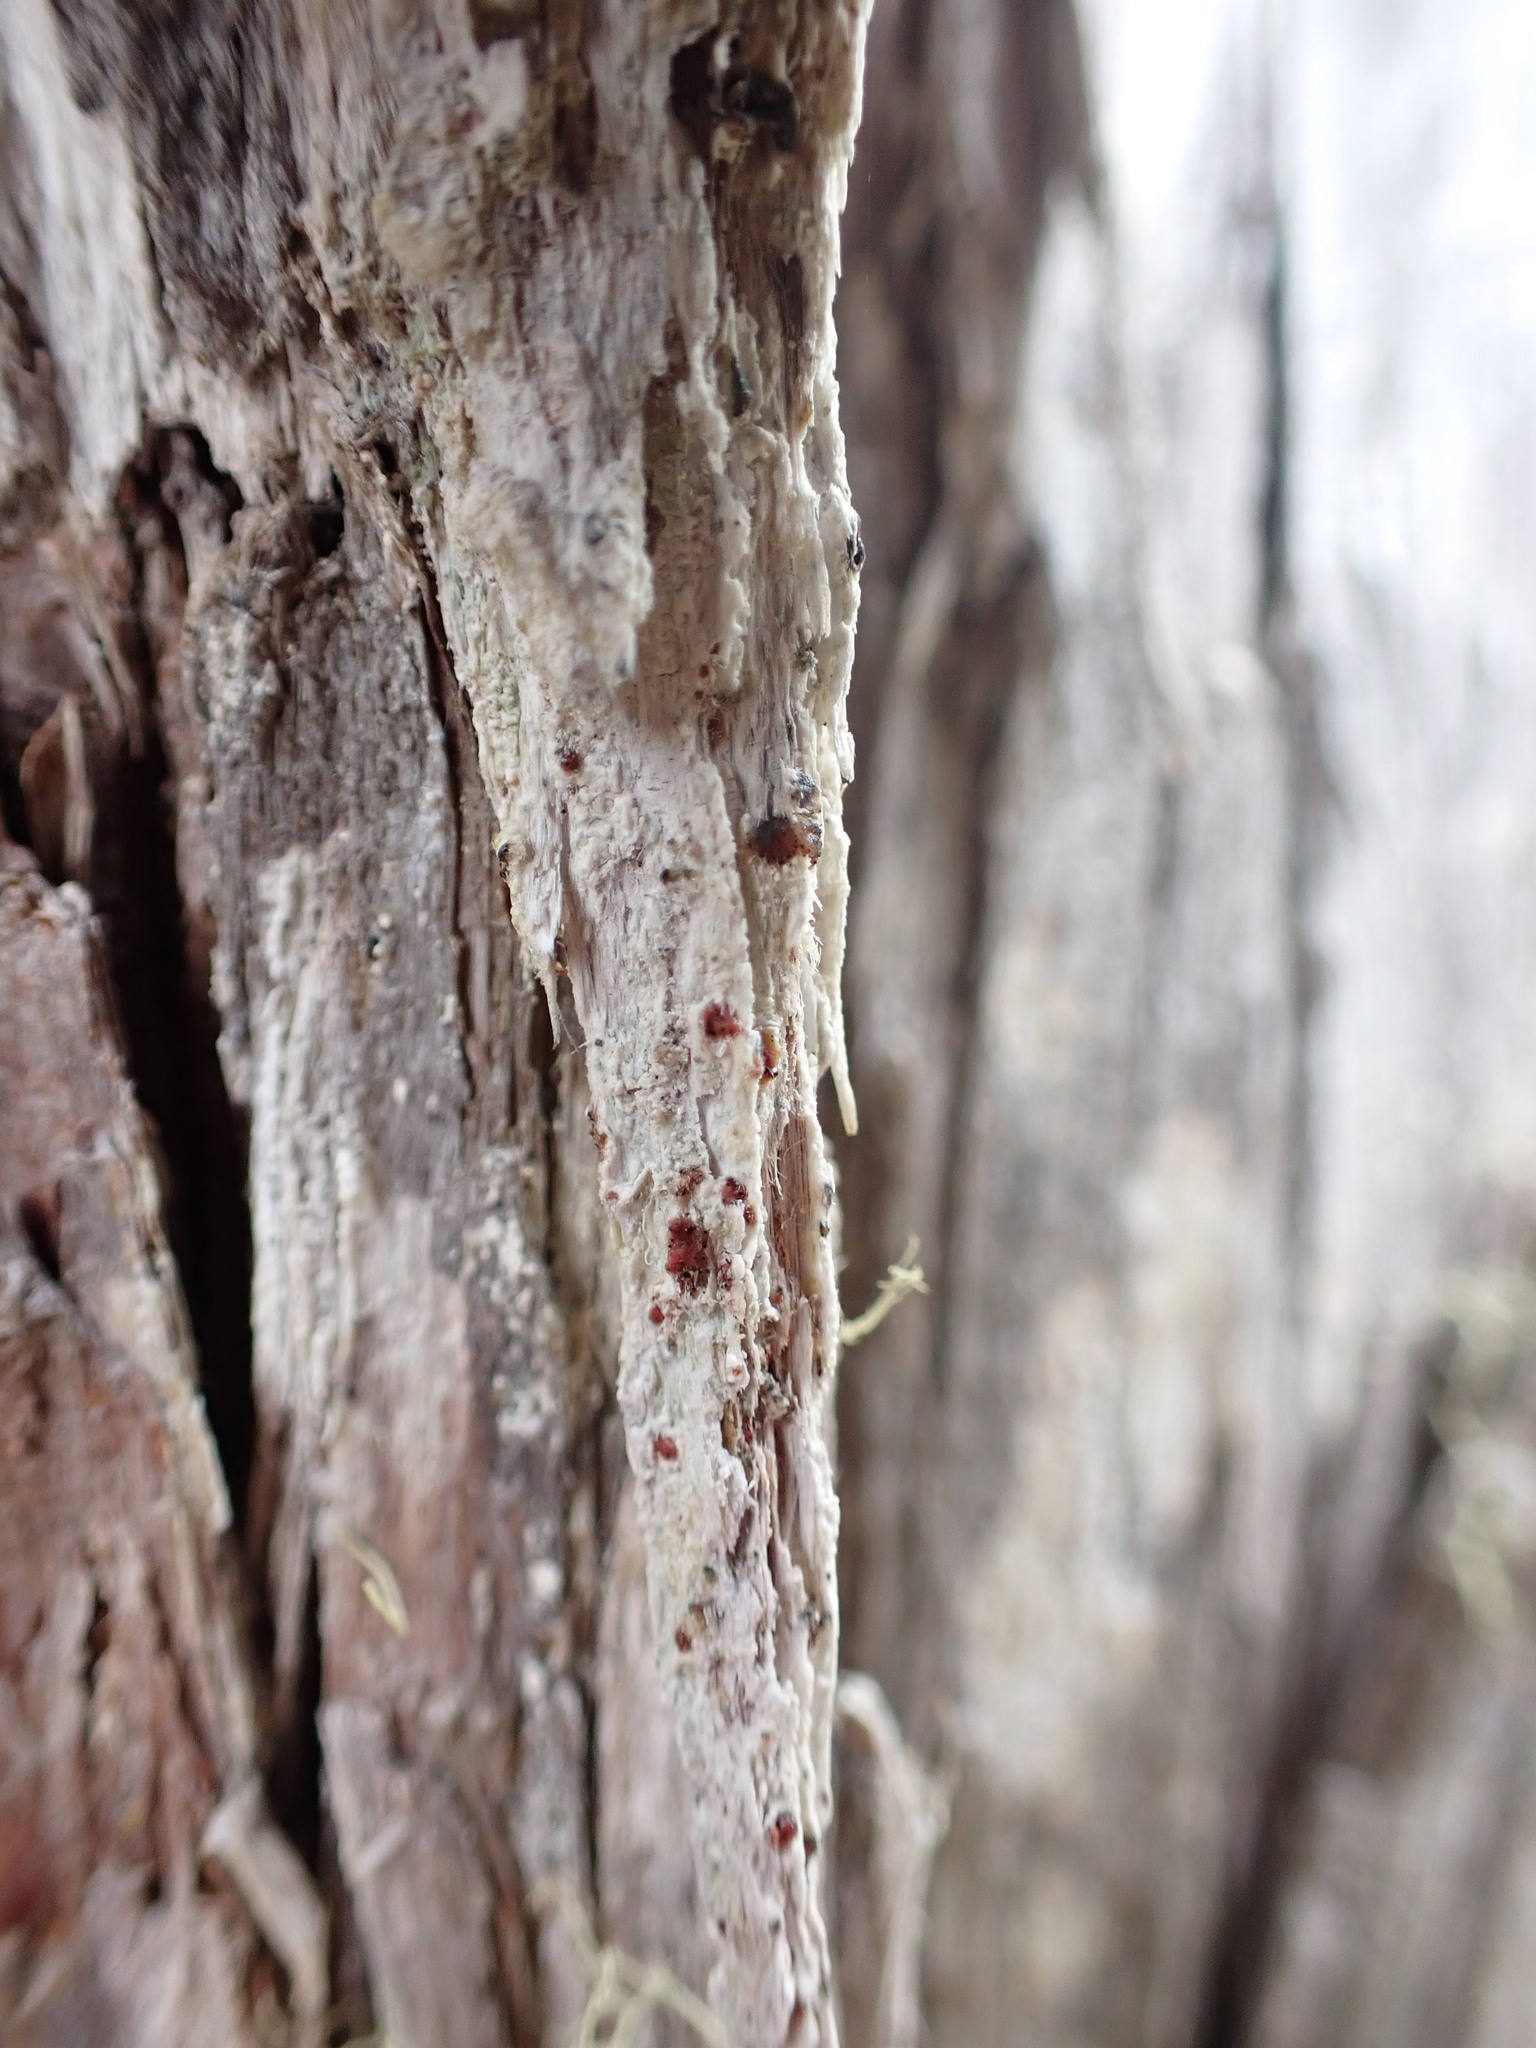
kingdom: Fungi
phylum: Ascomycota
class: Lecanoromycetes
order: Lecanorales
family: Tephromelataceae
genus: Mycoblastus
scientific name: Mycoblastus sanguinarius
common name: Bloody-heart lichen
